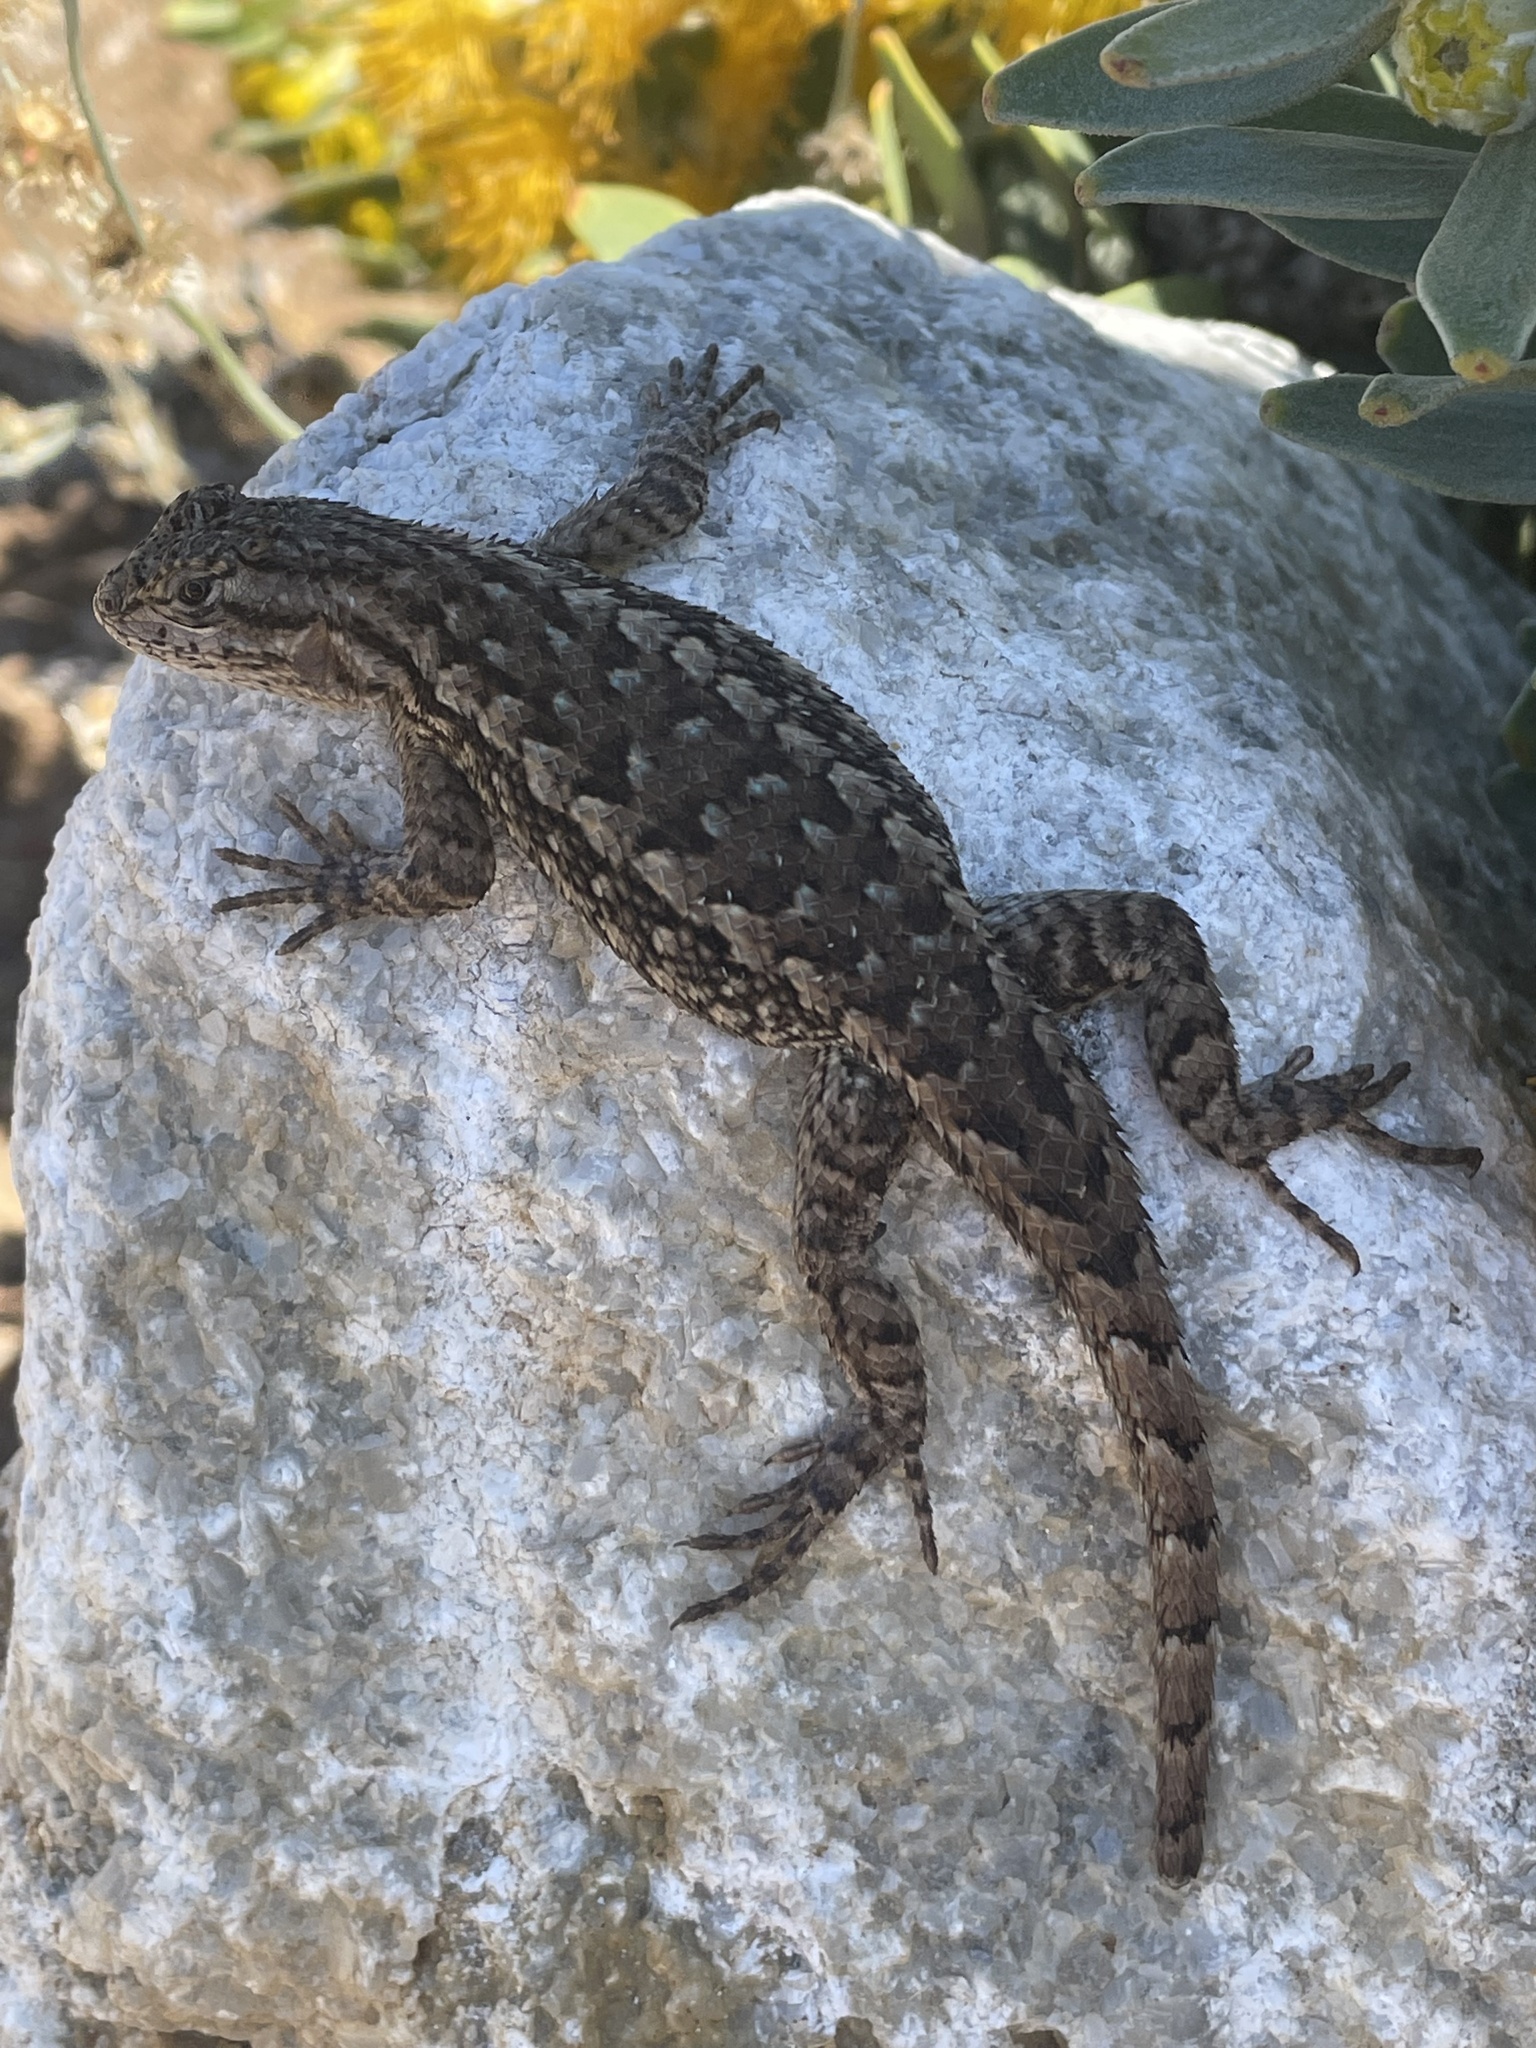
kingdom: Animalia
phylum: Chordata
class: Squamata
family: Phrynosomatidae
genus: Sceloporus
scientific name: Sceloporus occidentalis
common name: Western fence lizard
